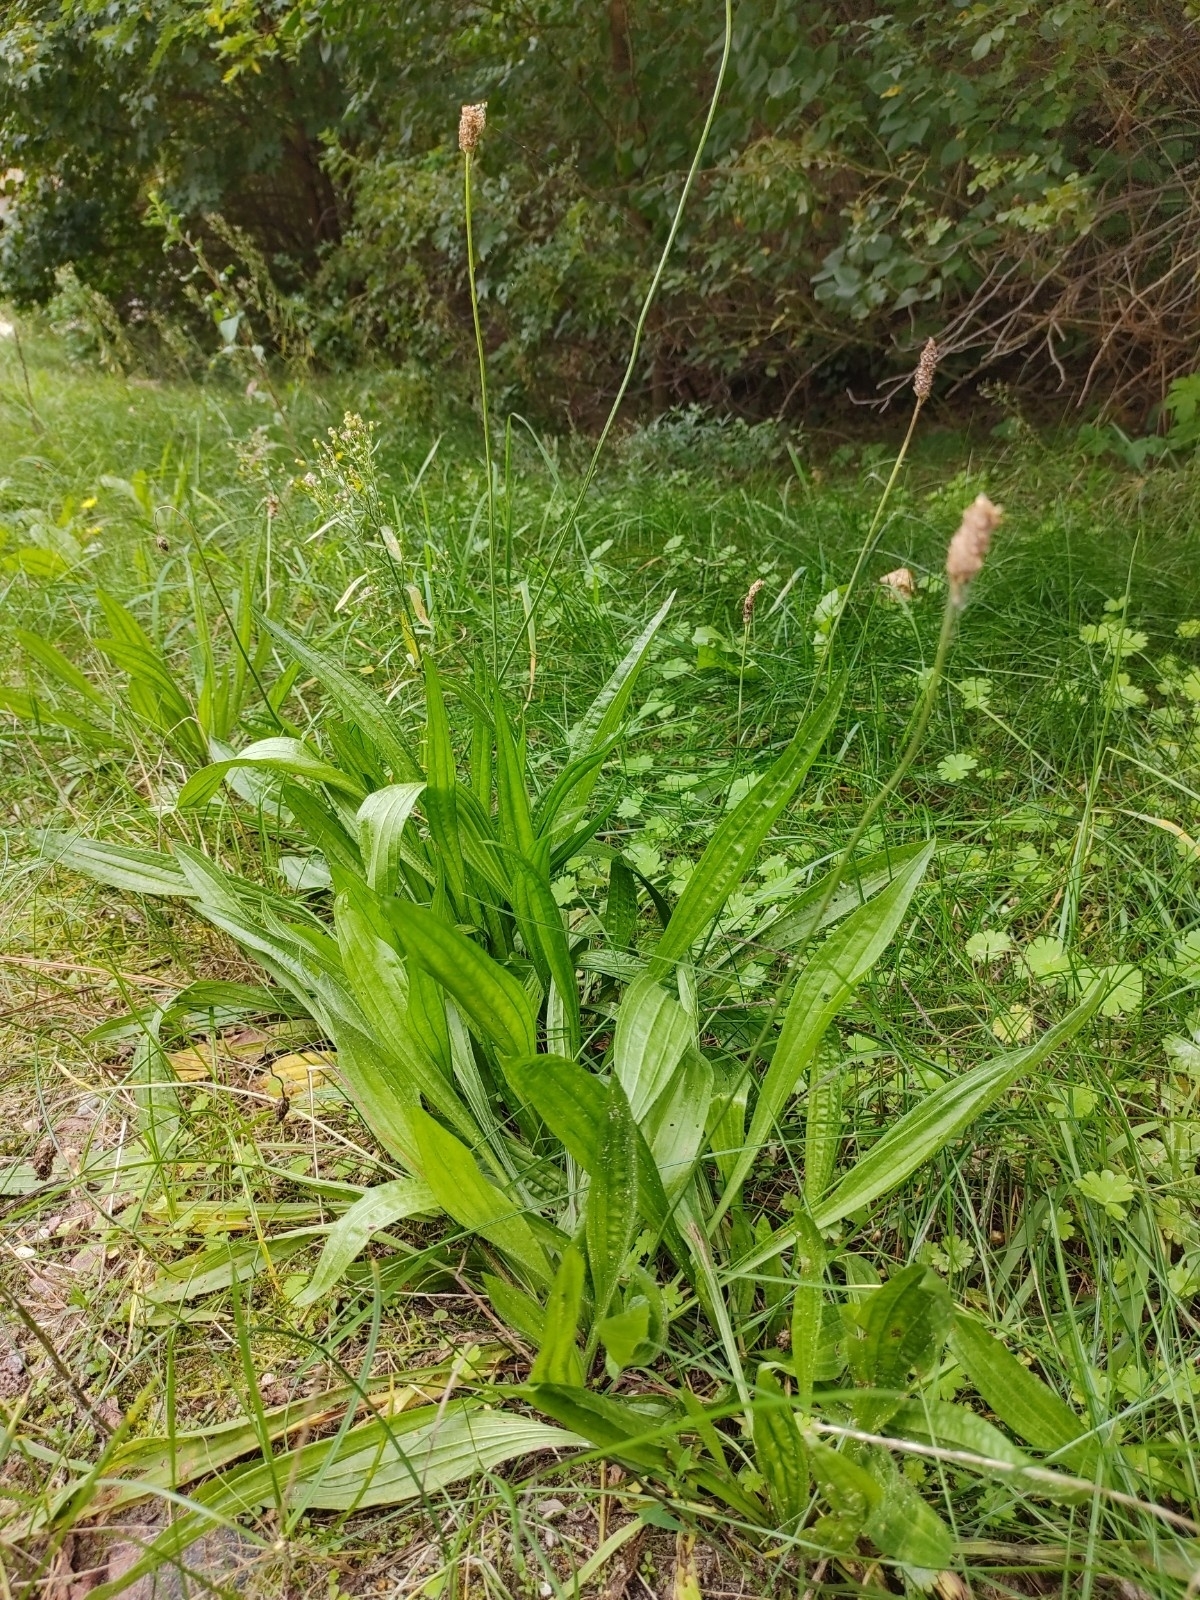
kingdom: Plantae
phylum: Tracheophyta
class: Magnoliopsida
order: Lamiales
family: Plantaginaceae
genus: Plantago
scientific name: Plantago lanceolata
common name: Ribwort plantain
